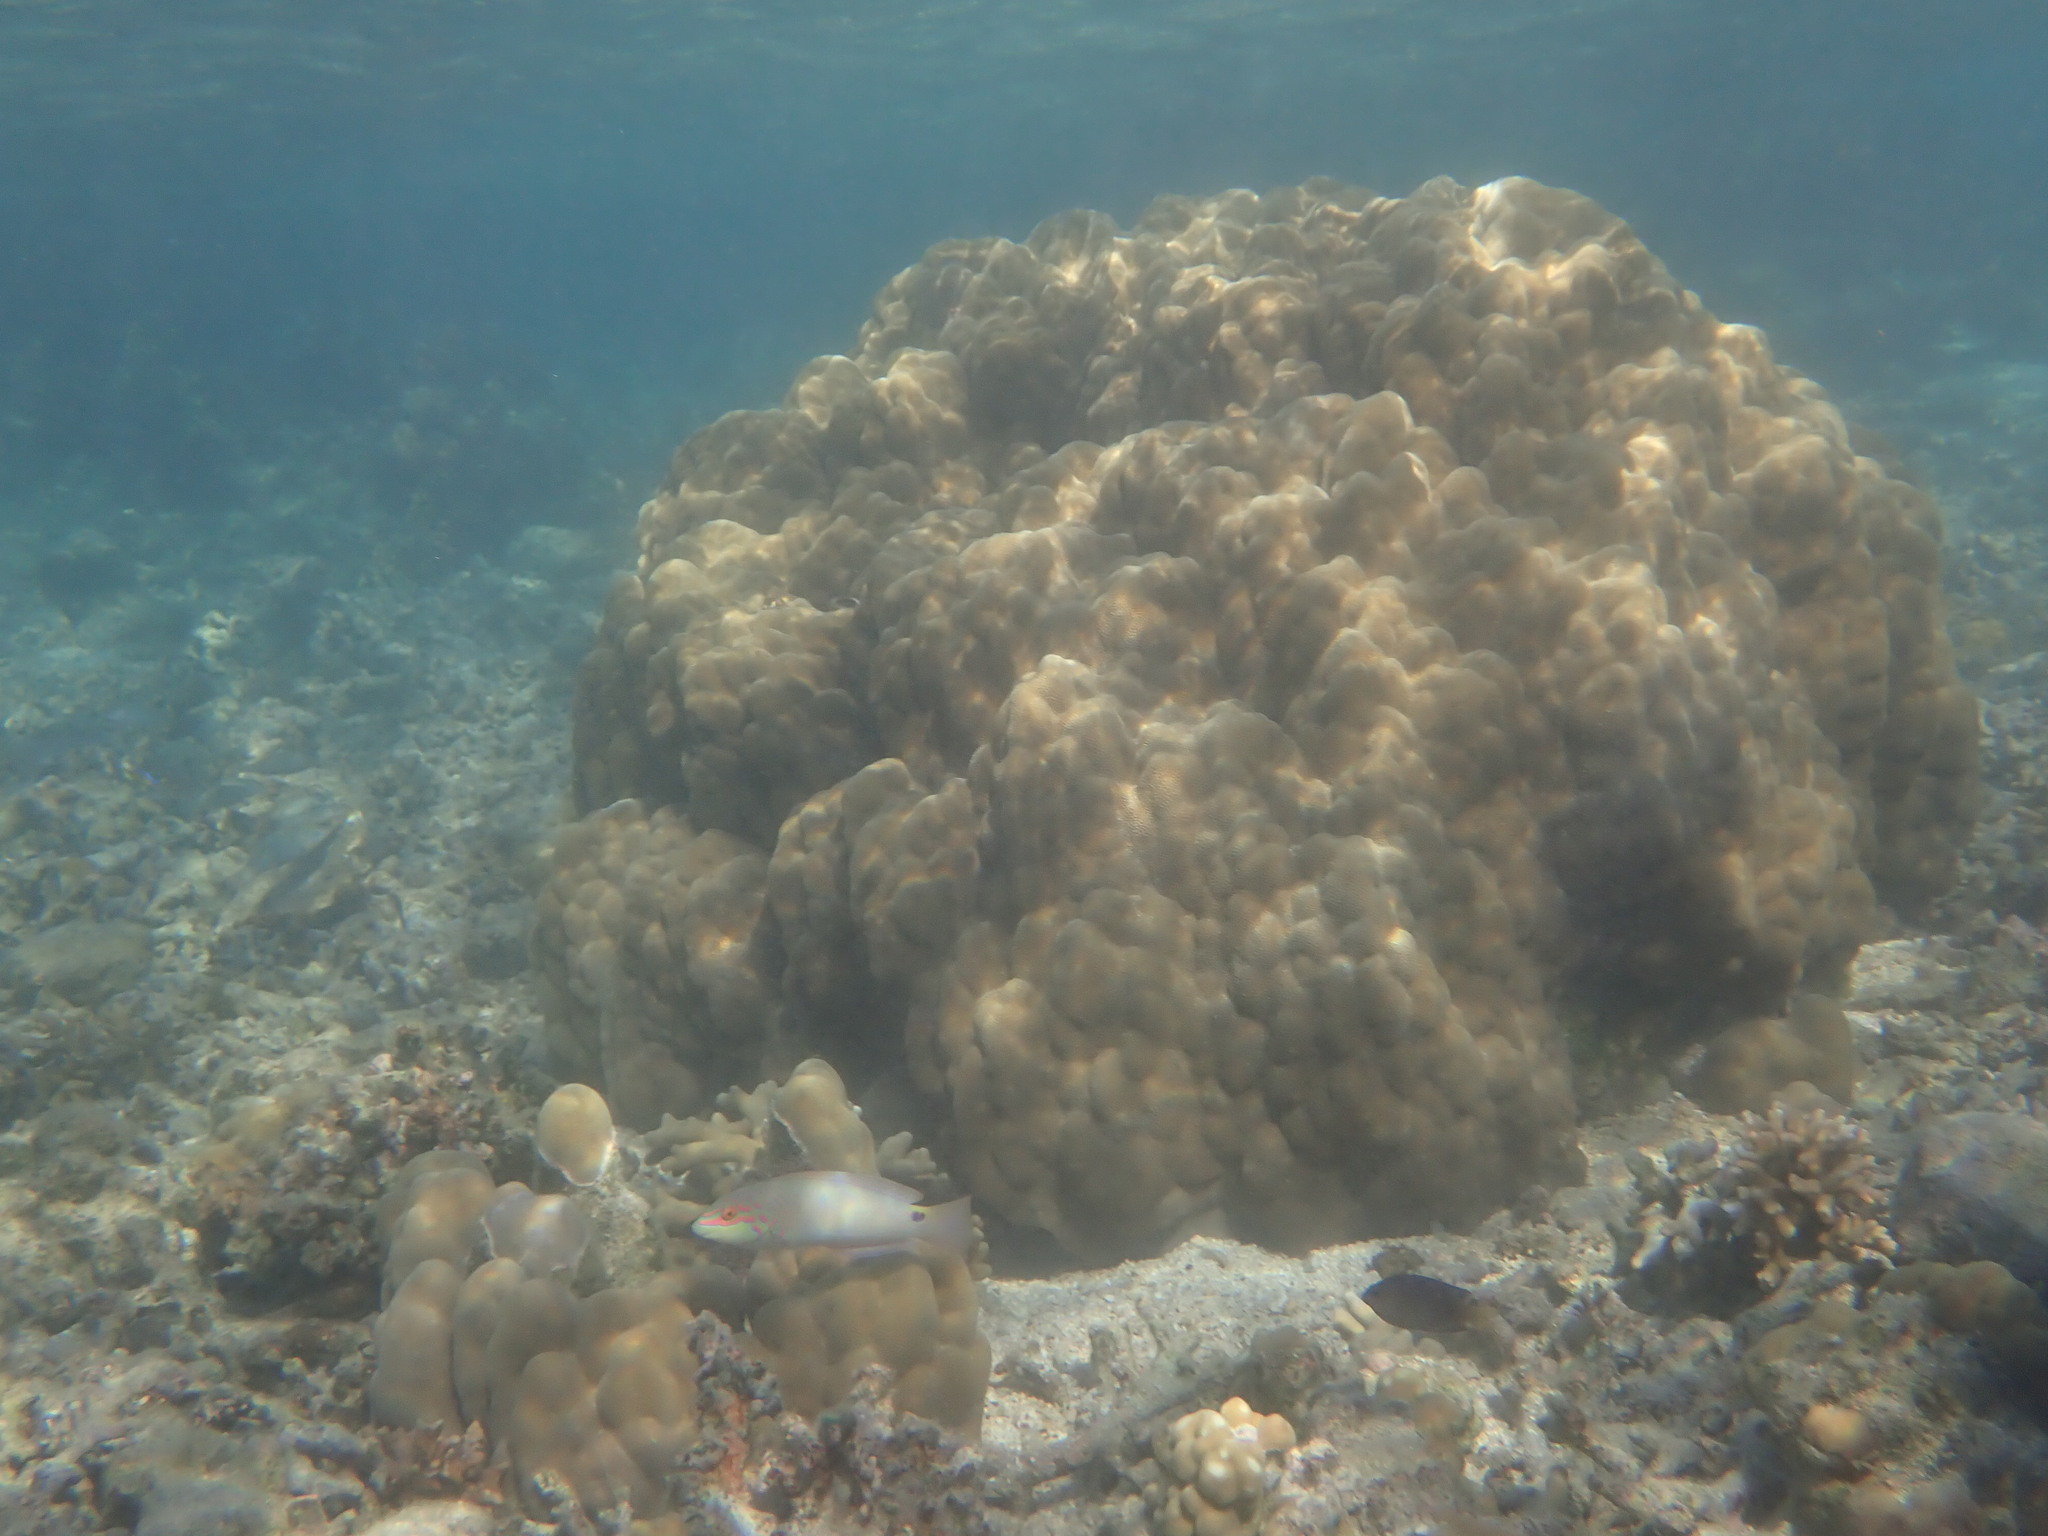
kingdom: Animalia
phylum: Chordata
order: Perciformes
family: Labridae
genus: Halichoeres
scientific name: Halichoeres trimaculatus
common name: Three-spot wrasse
